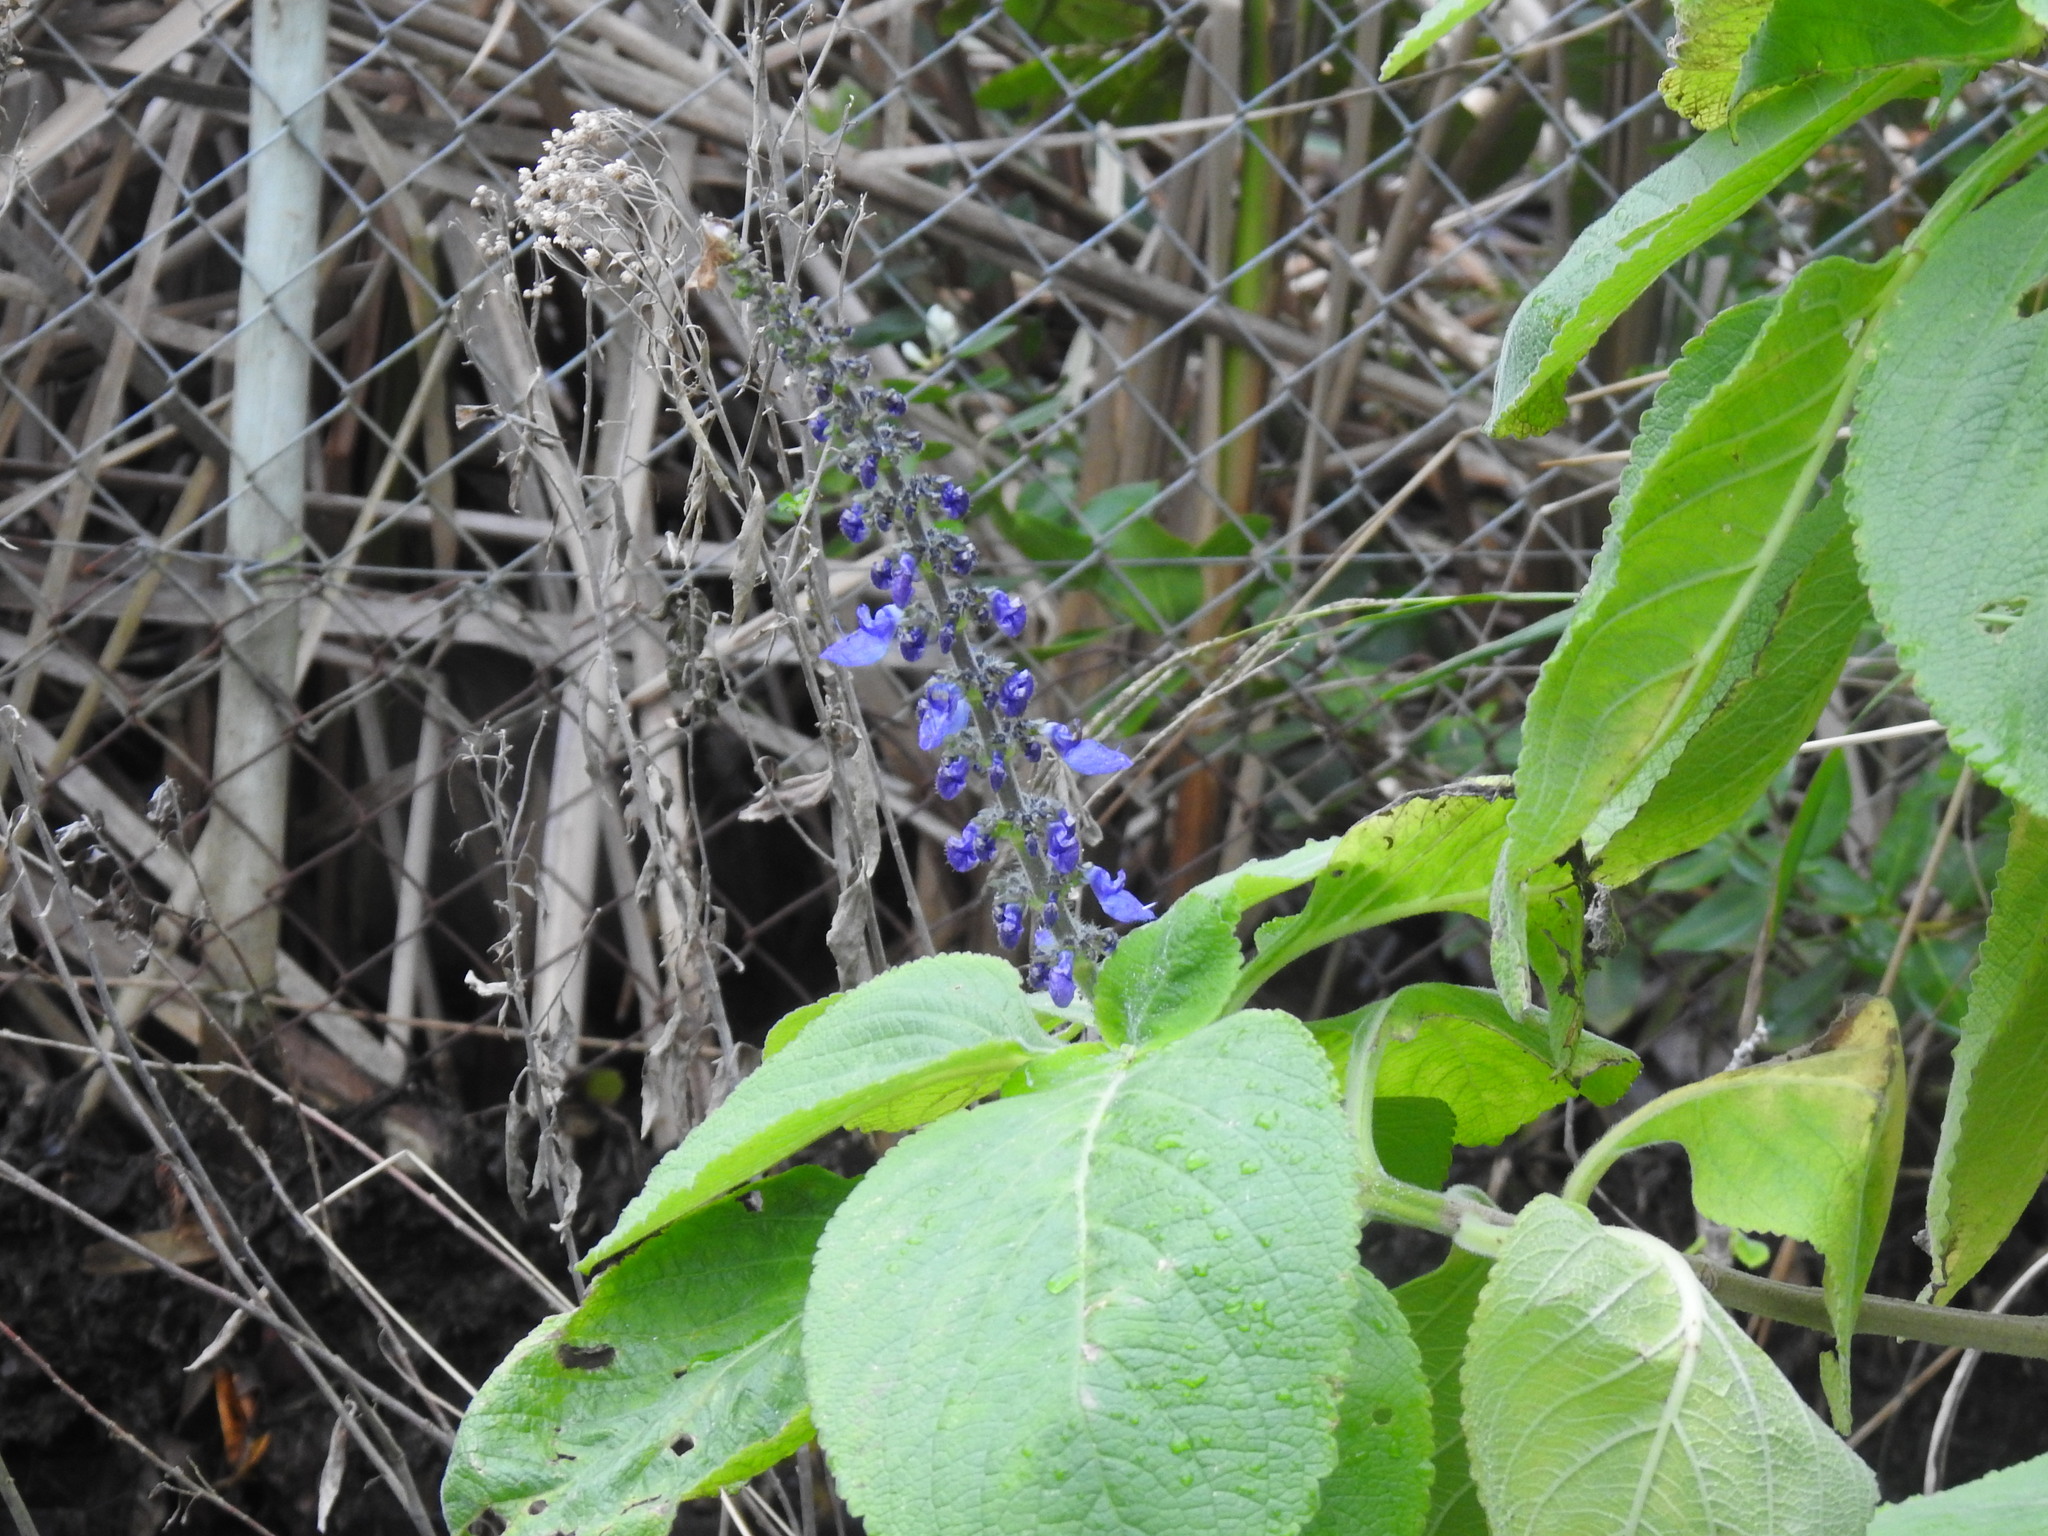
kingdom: Plantae
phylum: Tracheophyta
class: Magnoliopsida
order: Lamiales
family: Lamiaceae
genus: Coleus
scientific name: Coleus barbatus
